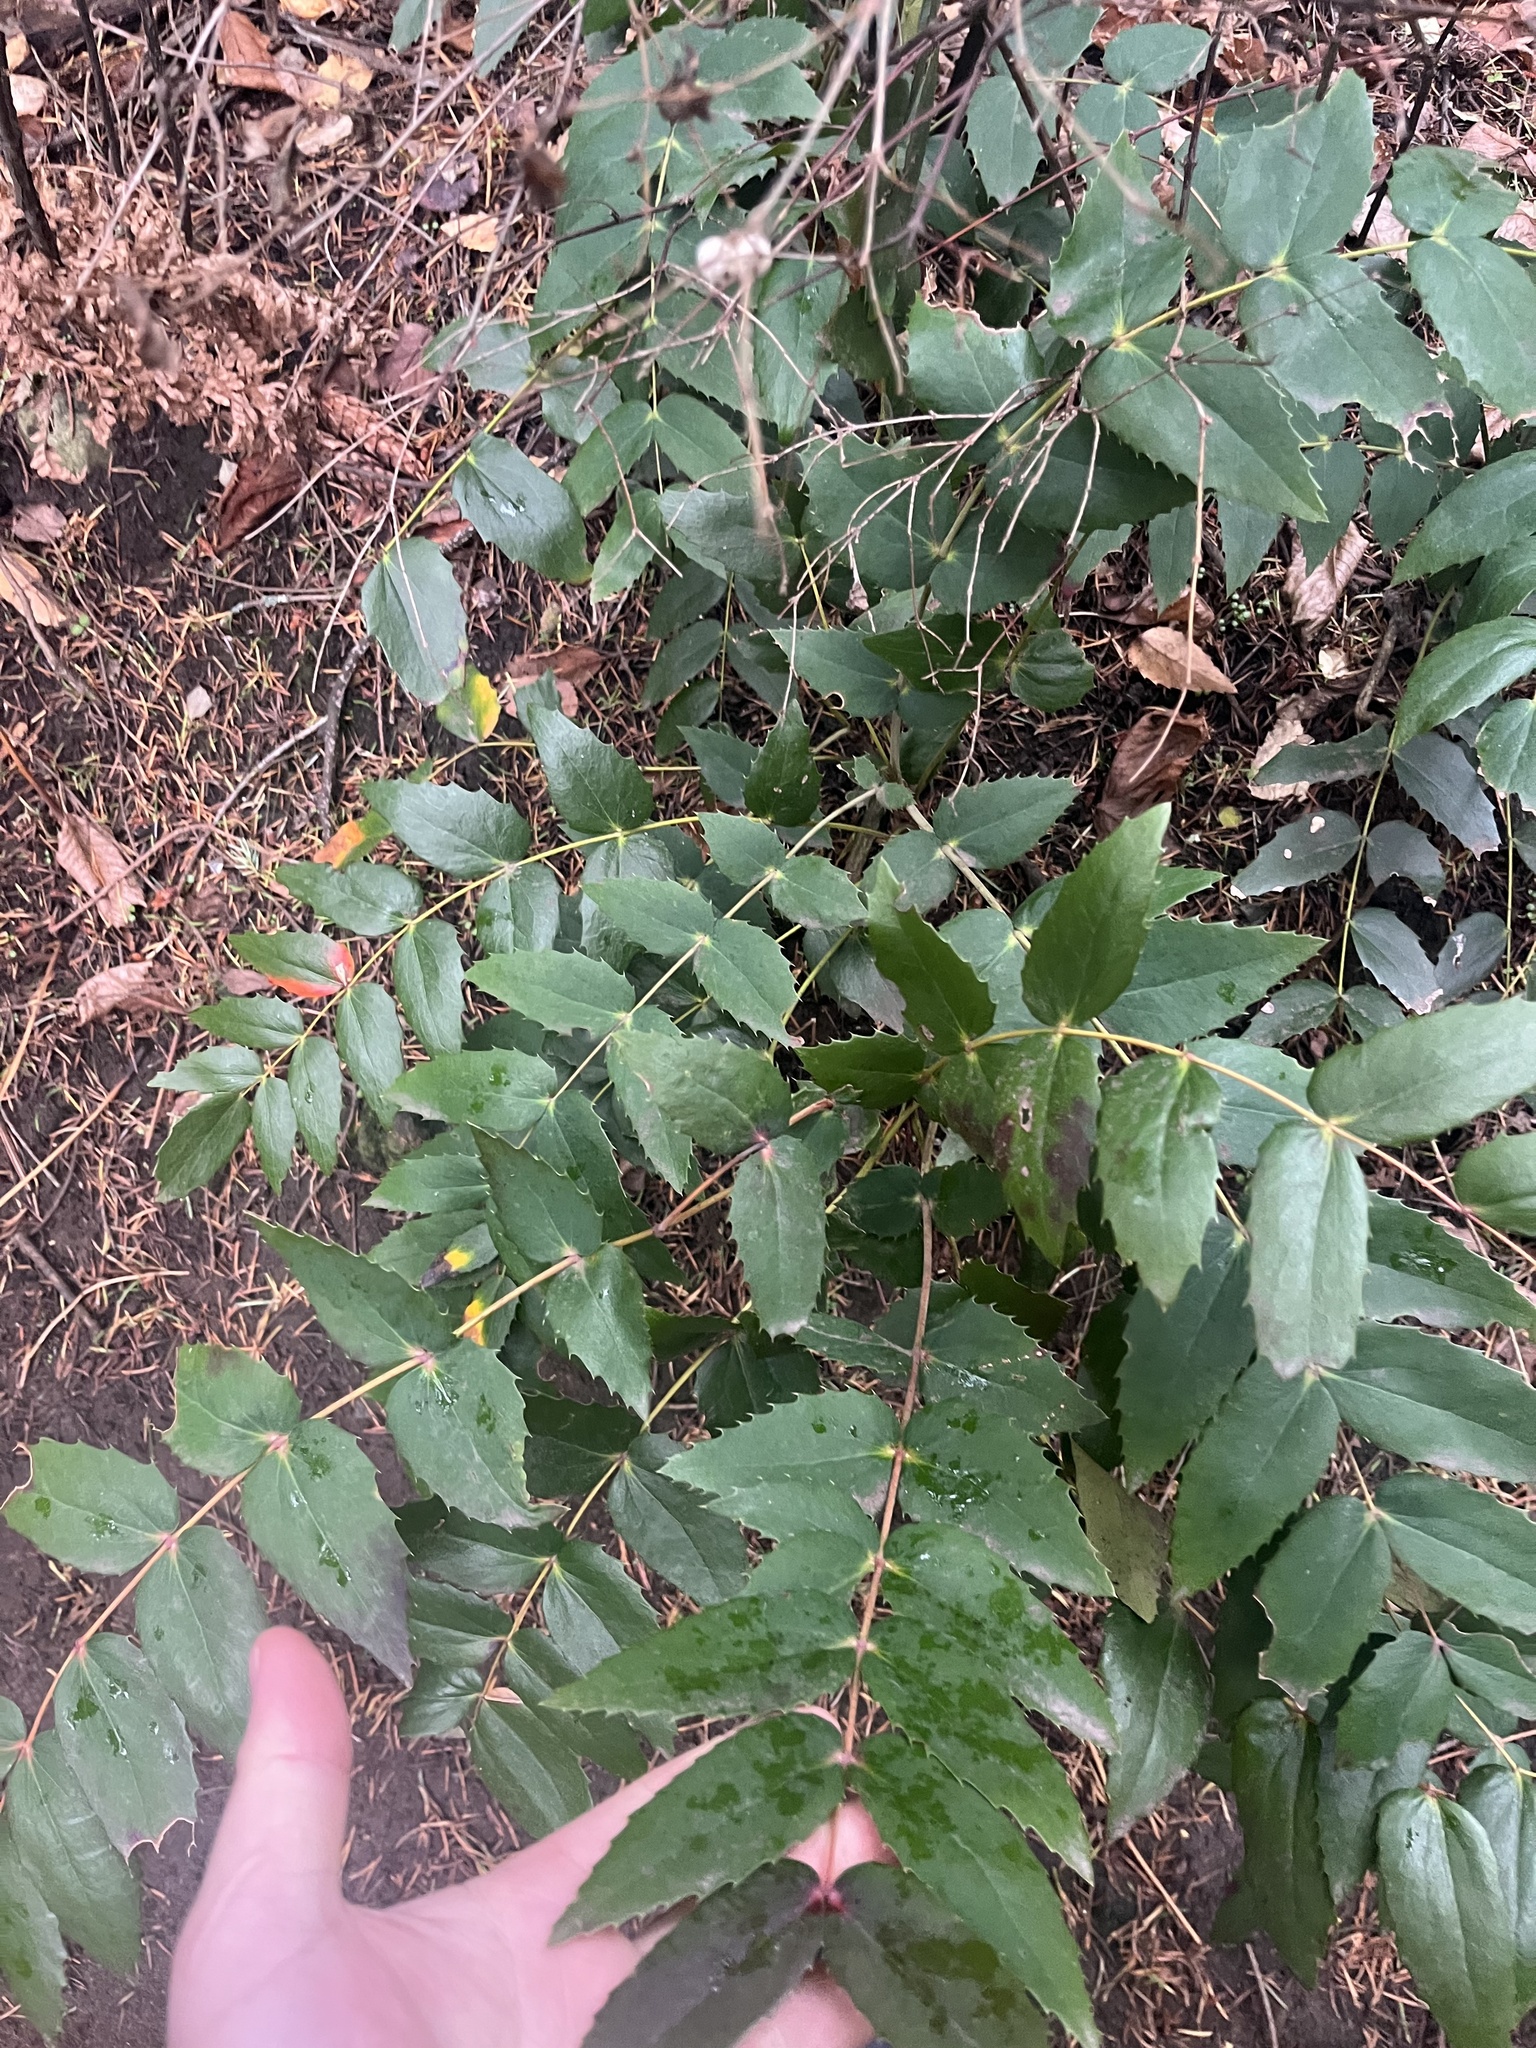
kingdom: Plantae
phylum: Tracheophyta
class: Magnoliopsida
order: Ranunculales
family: Berberidaceae
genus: Mahonia
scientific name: Mahonia nervosa
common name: Cascade oregon-grape
